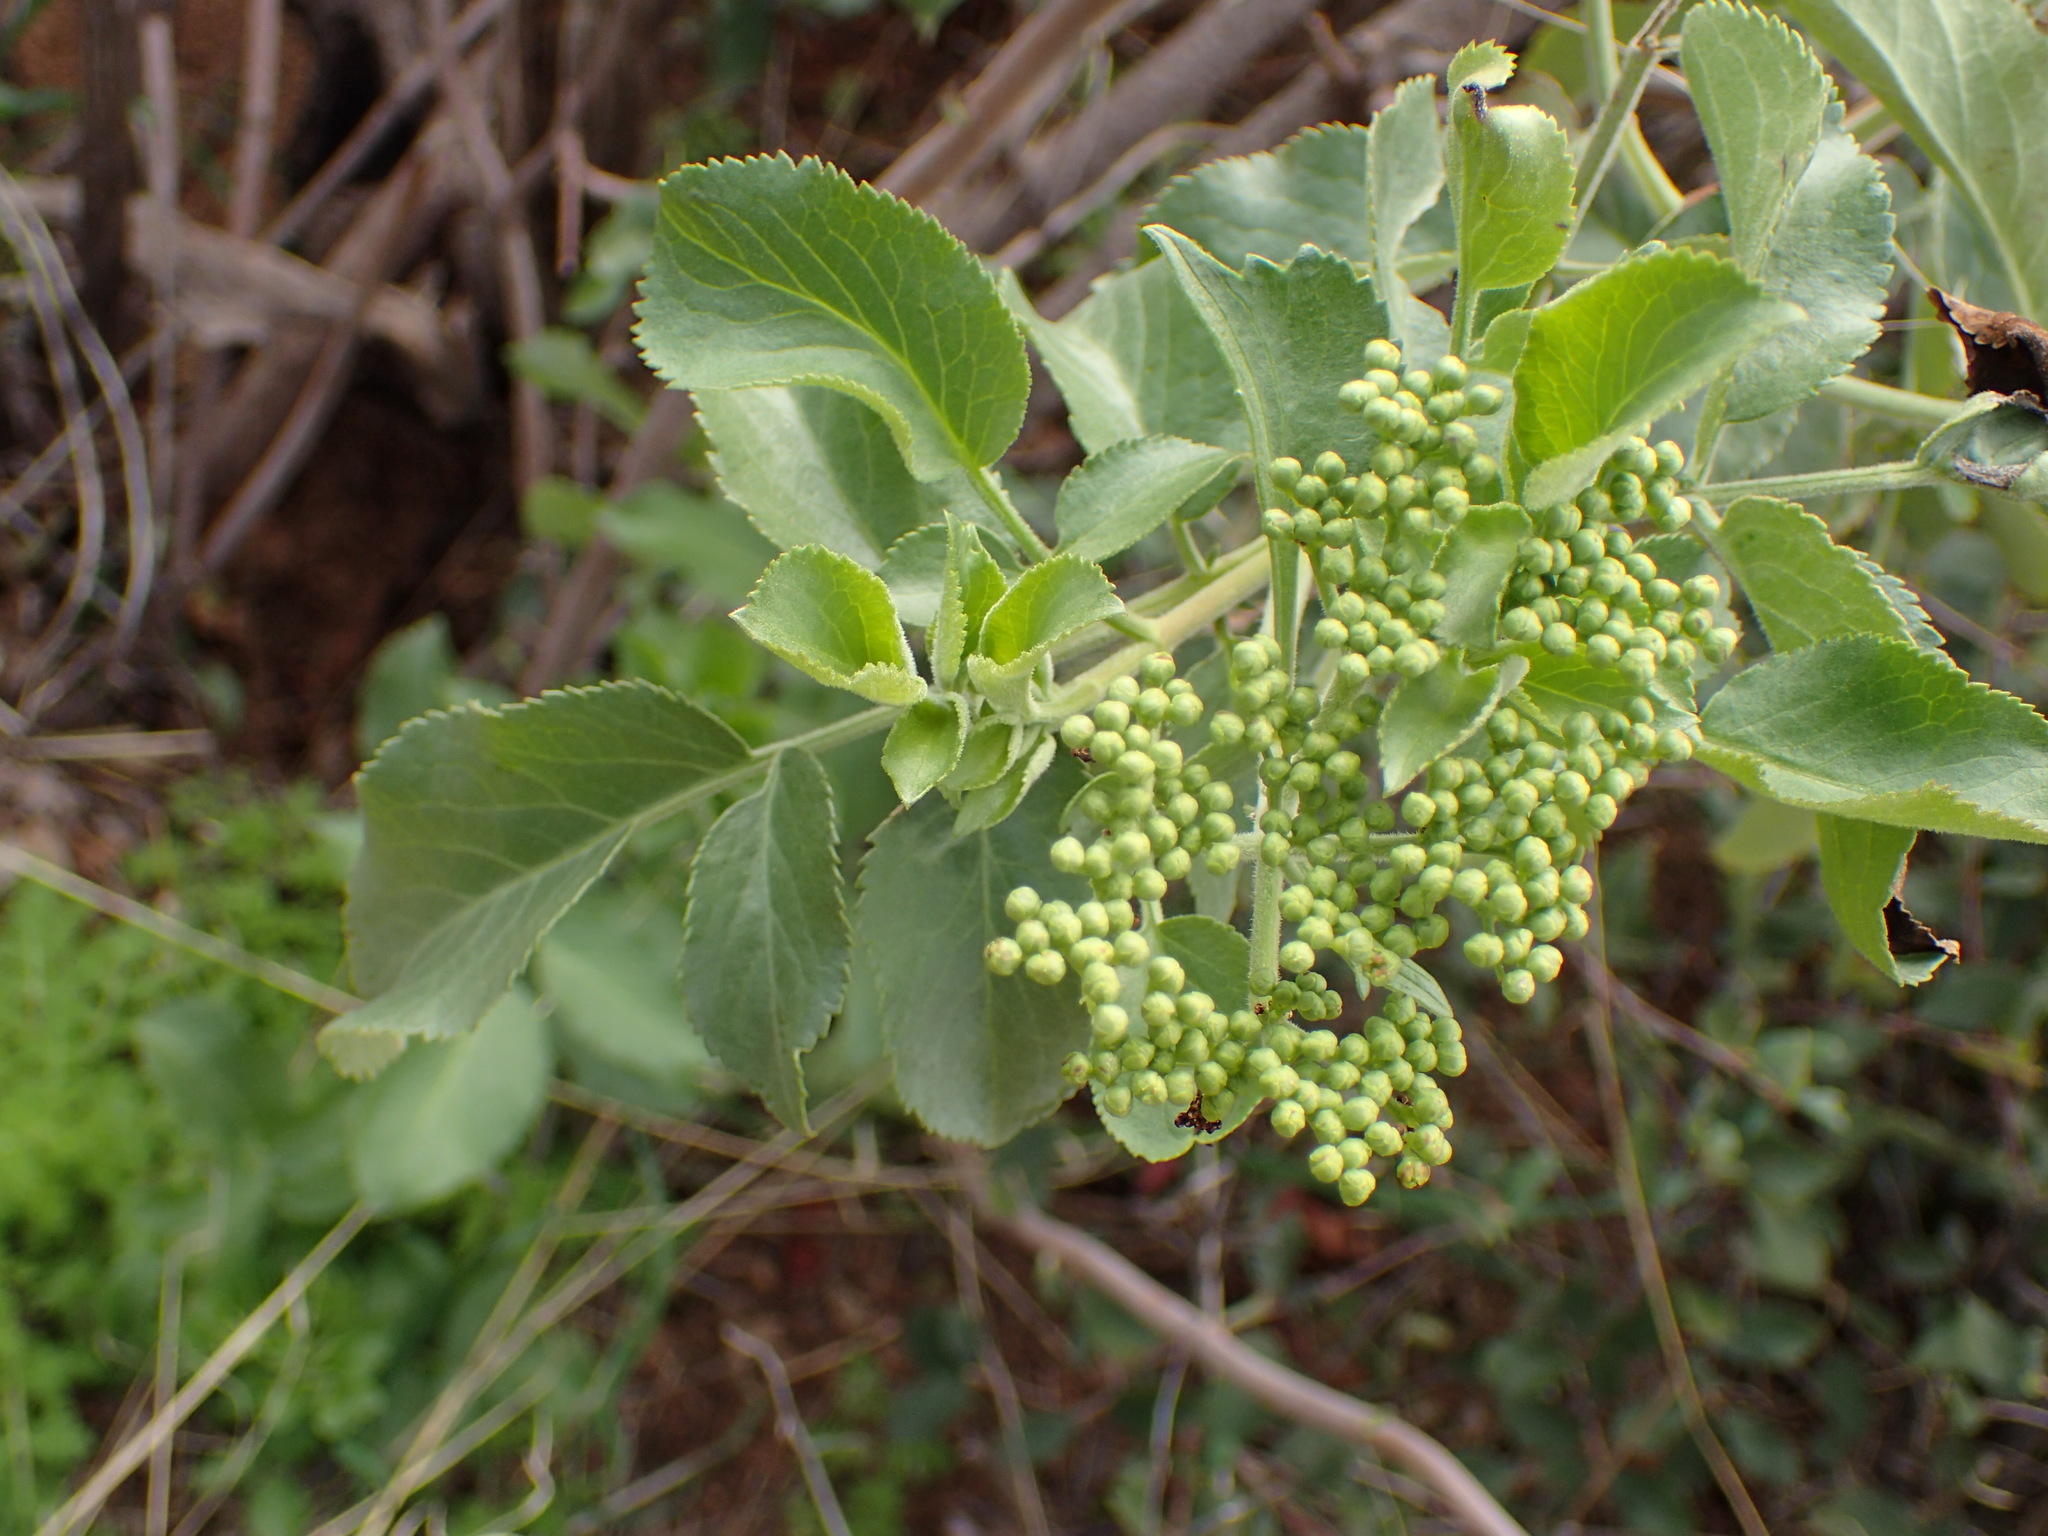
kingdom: Plantae
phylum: Tracheophyta
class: Magnoliopsida
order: Dipsacales
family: Viburnaceae
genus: Sambucus
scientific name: Sambucus cerulea
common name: Blue elder
